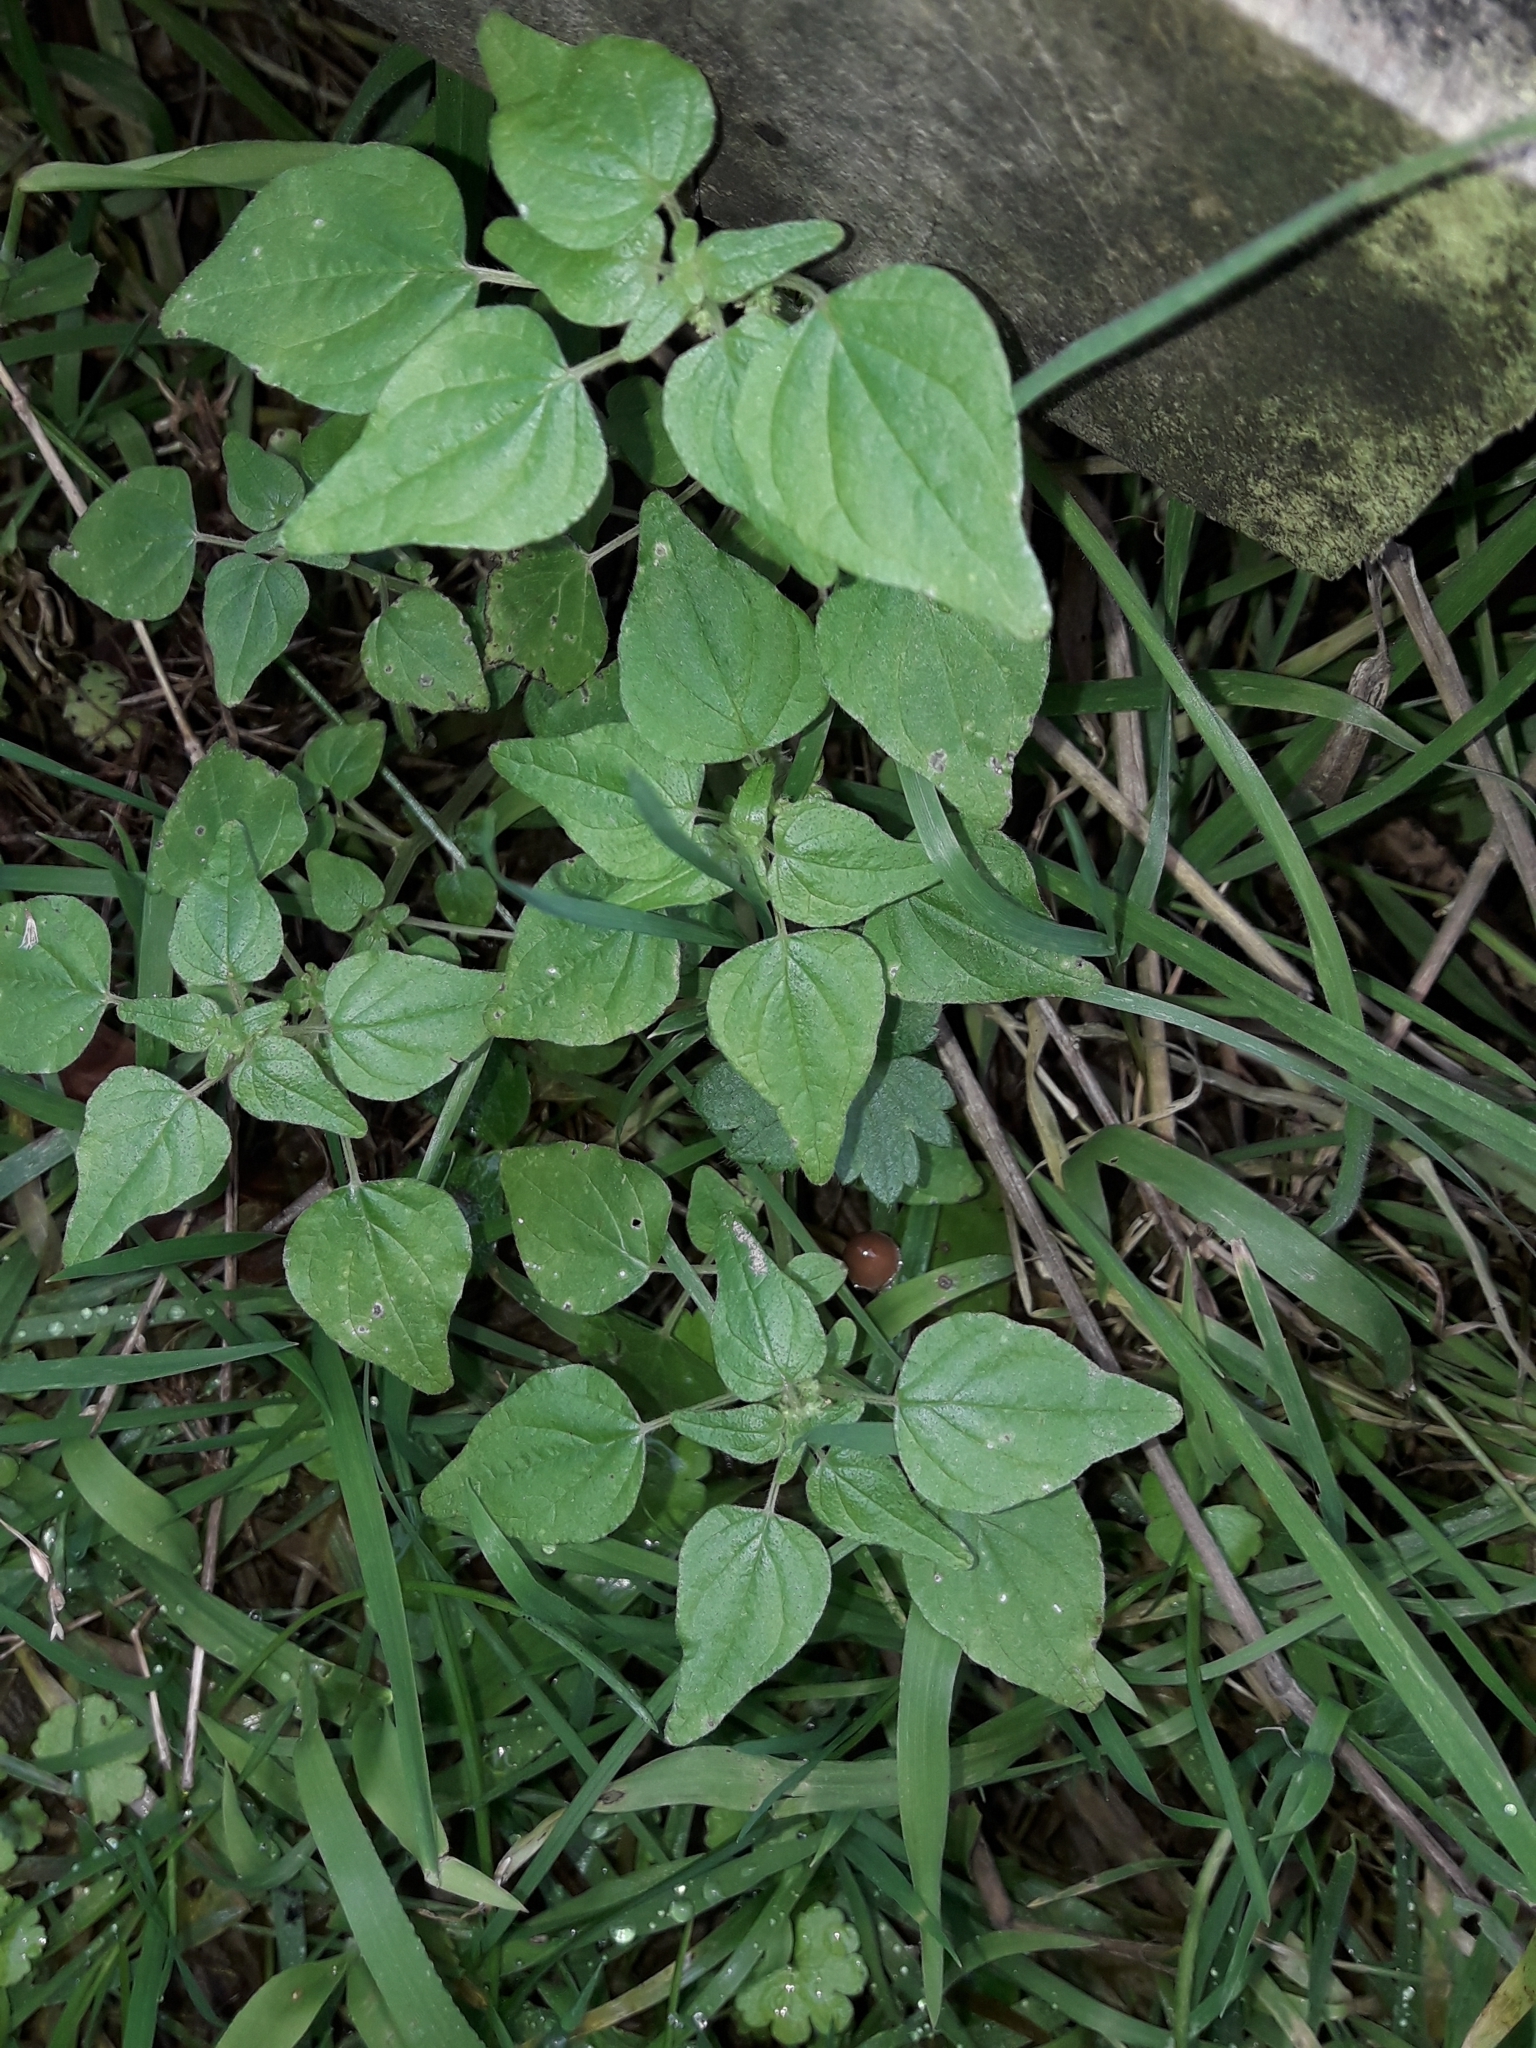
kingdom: Plantae
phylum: Tracheophyta
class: Magnoliopsida
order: Rosales
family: Urticaceae
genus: Parietaria
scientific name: Parietaria debilis
